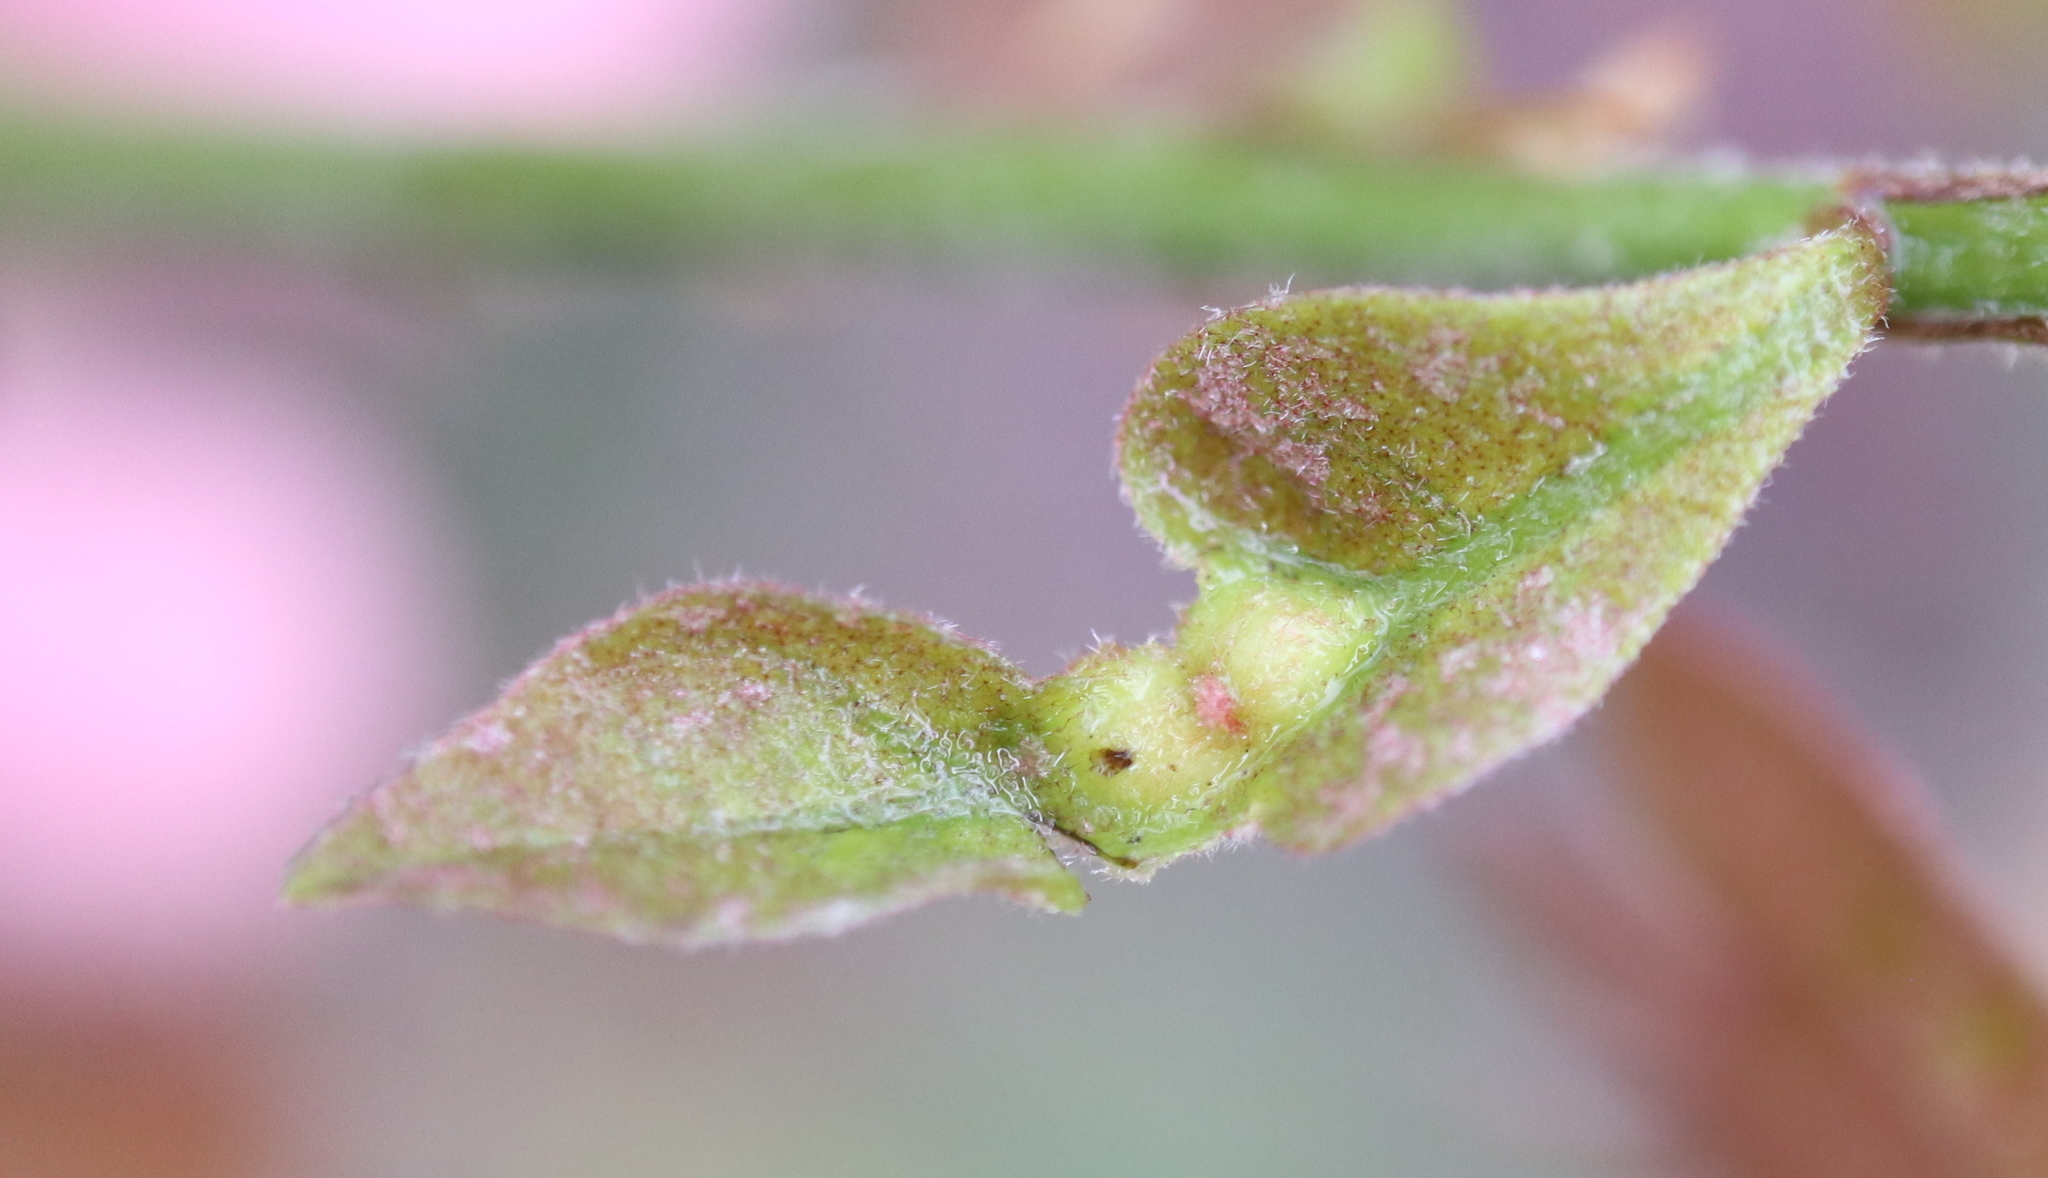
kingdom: Animalia
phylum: Arthropoda
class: Insecta
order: Hymenoptera
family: Cynipidae
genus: Andricus
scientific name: Andricus
